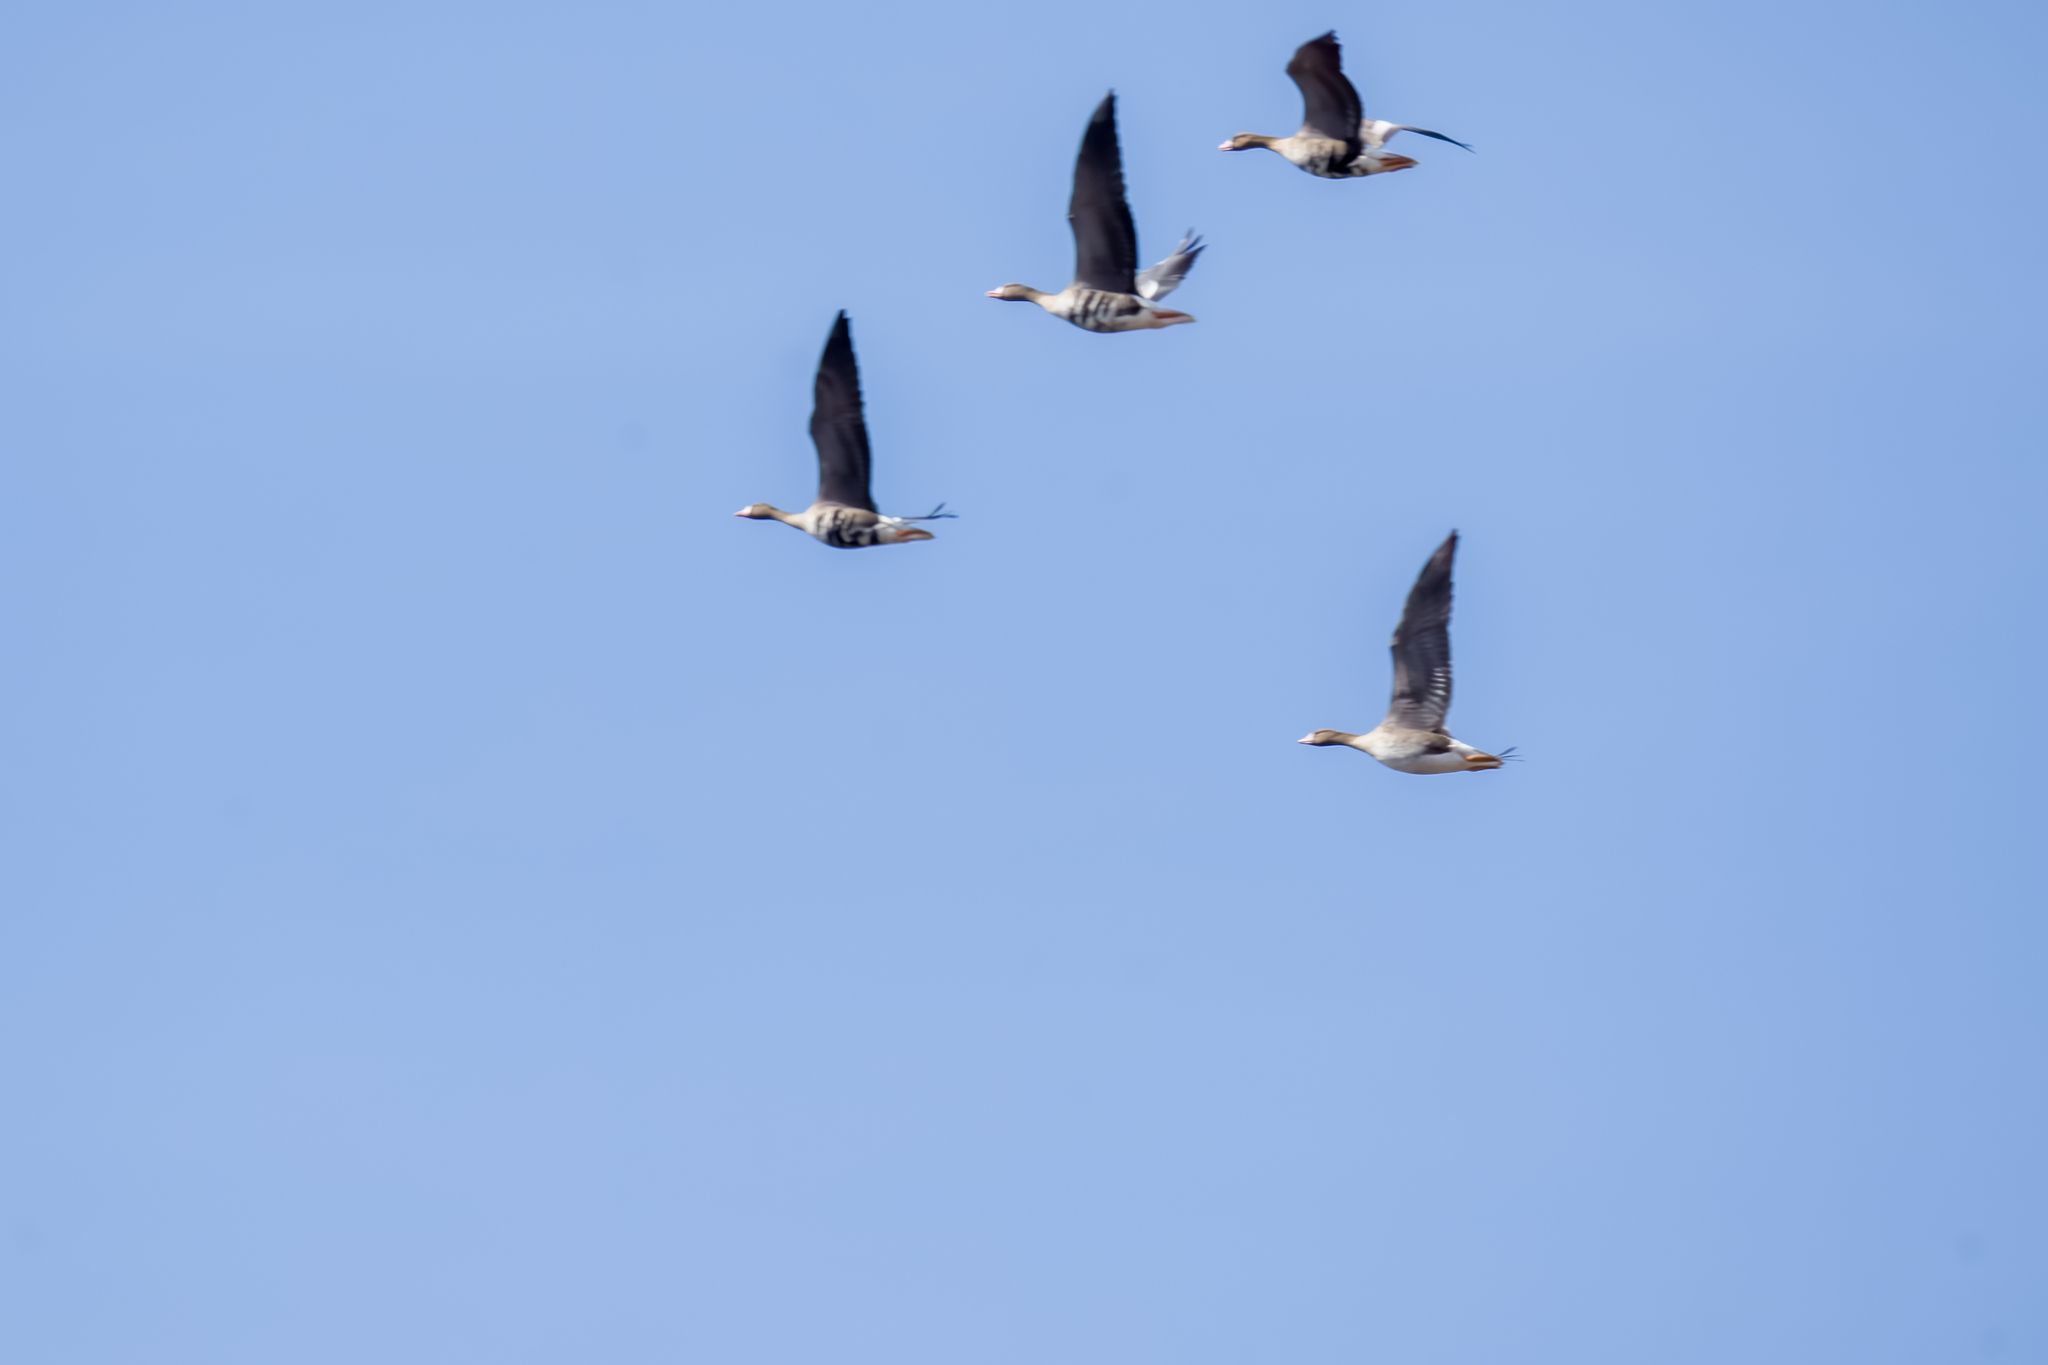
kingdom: Animalia
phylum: Chordata
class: Aves
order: Anseriformes
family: Anatidae
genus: Anser
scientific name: Anser albifrons
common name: Greater white-fronted goose
